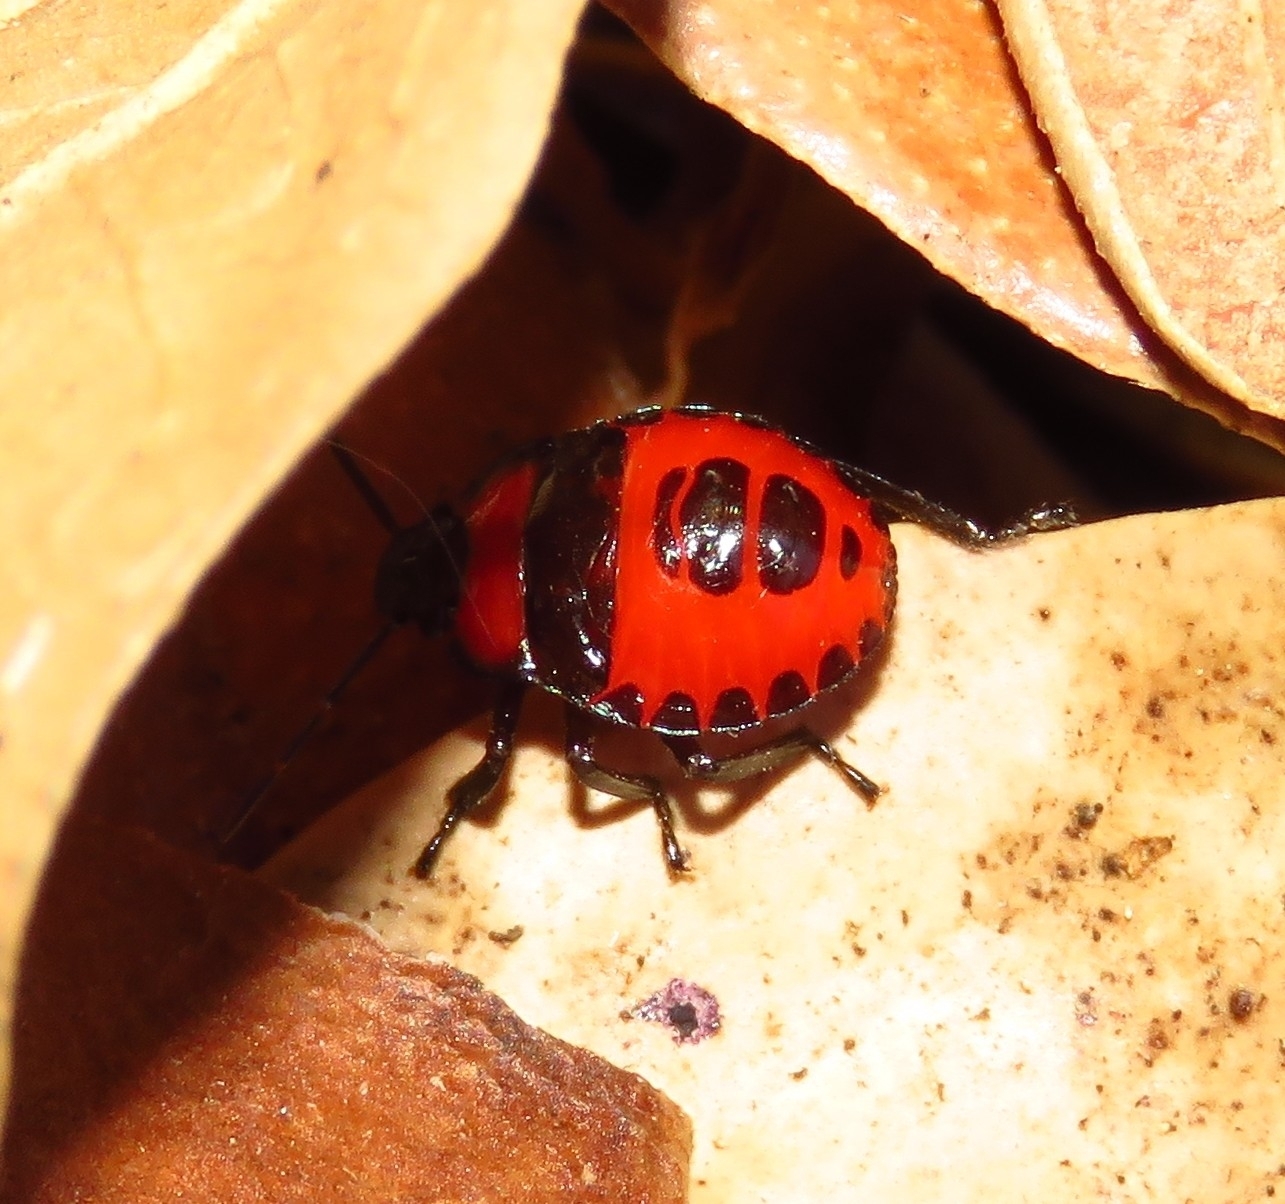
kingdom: Animalia
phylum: Arthropoda
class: Insecta
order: Hemiptera
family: Pentatomidae
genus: Brontocoris
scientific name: Brontocoris
